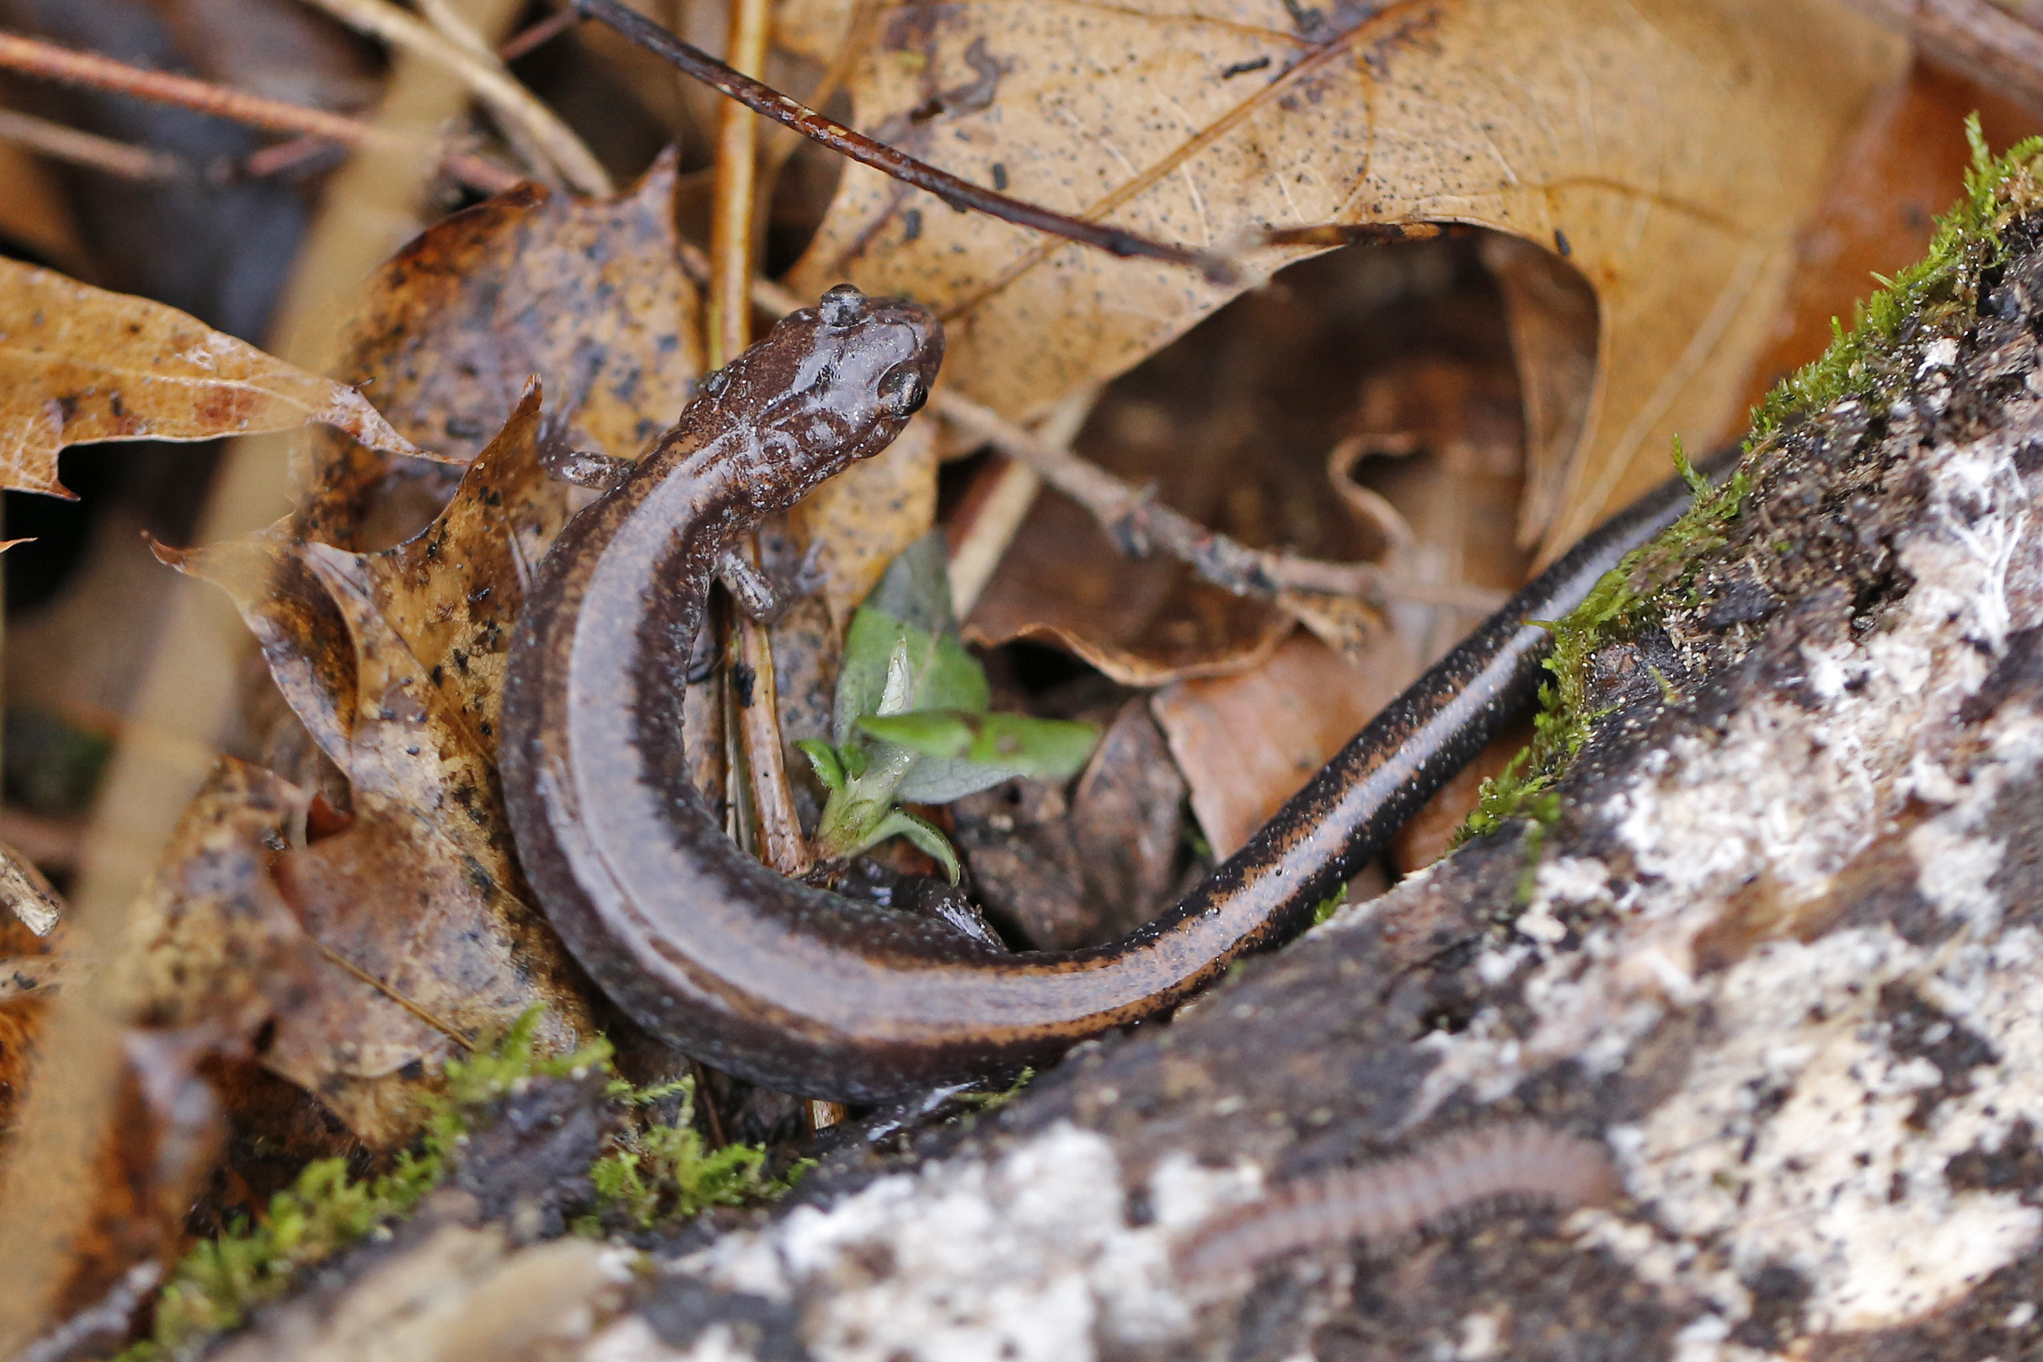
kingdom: Animalia
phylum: Chordata
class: Amphibia
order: Caudata
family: Plethodontidae
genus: Plethodon
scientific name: Plethodon cinereus
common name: Redback salamander
